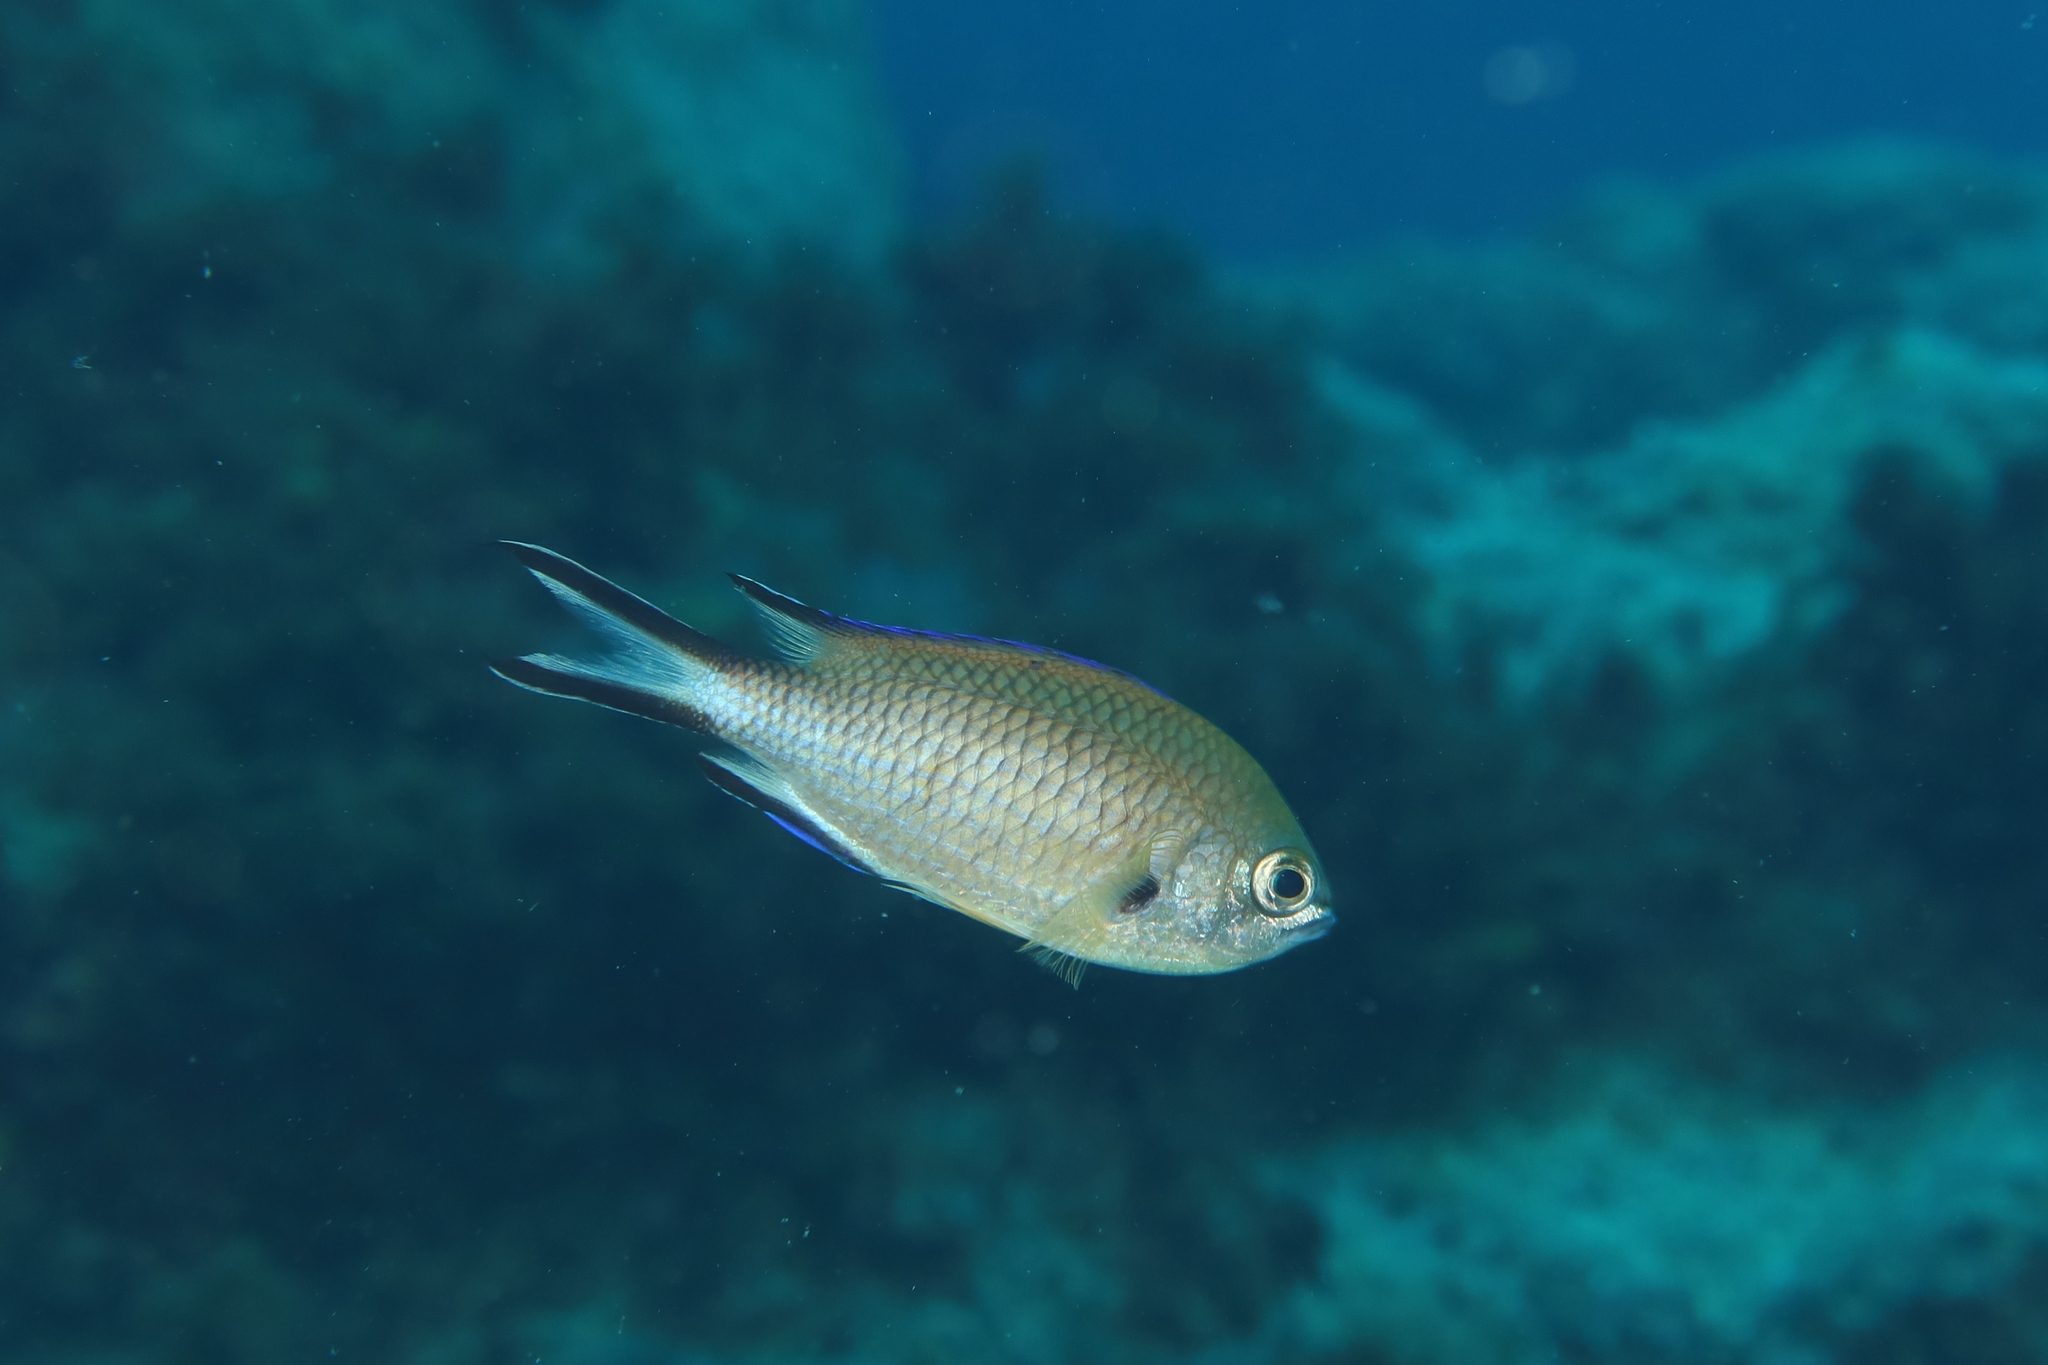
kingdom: Animalia
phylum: Chordata
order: Perciformes
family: Pomacentridae
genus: Chromis
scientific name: Chromis limbata
